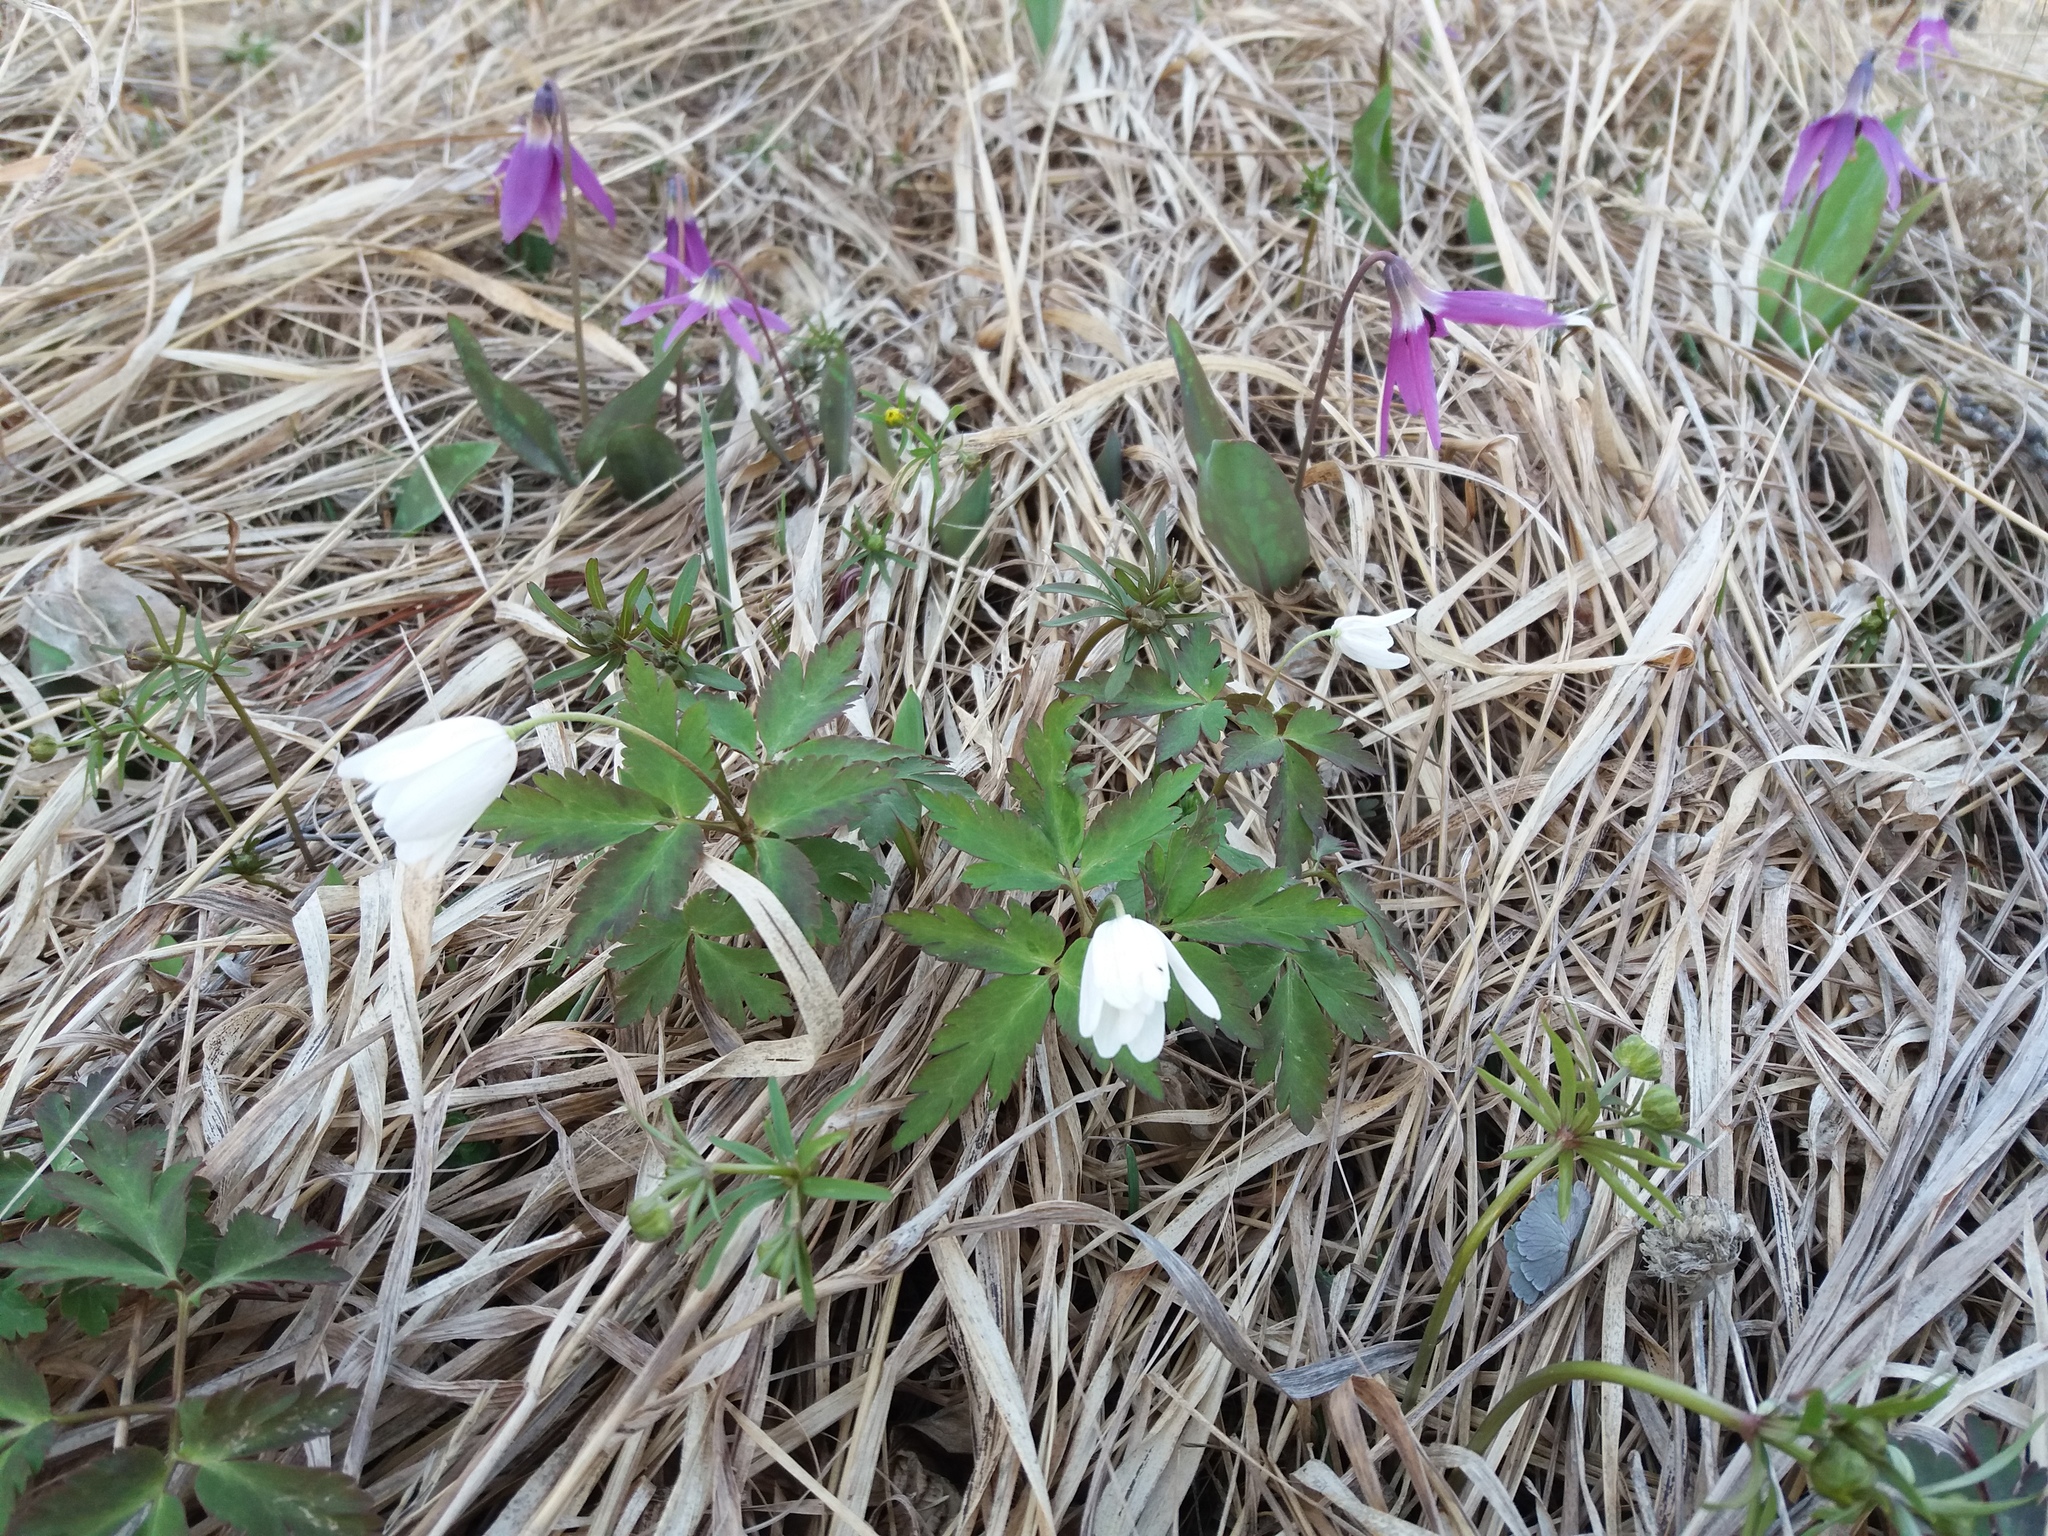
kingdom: Plantae
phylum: Tracheophyta
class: Magnoliopsida
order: Ranunculales
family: Ranunculaceae
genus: Anemone
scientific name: Anemone altaica
